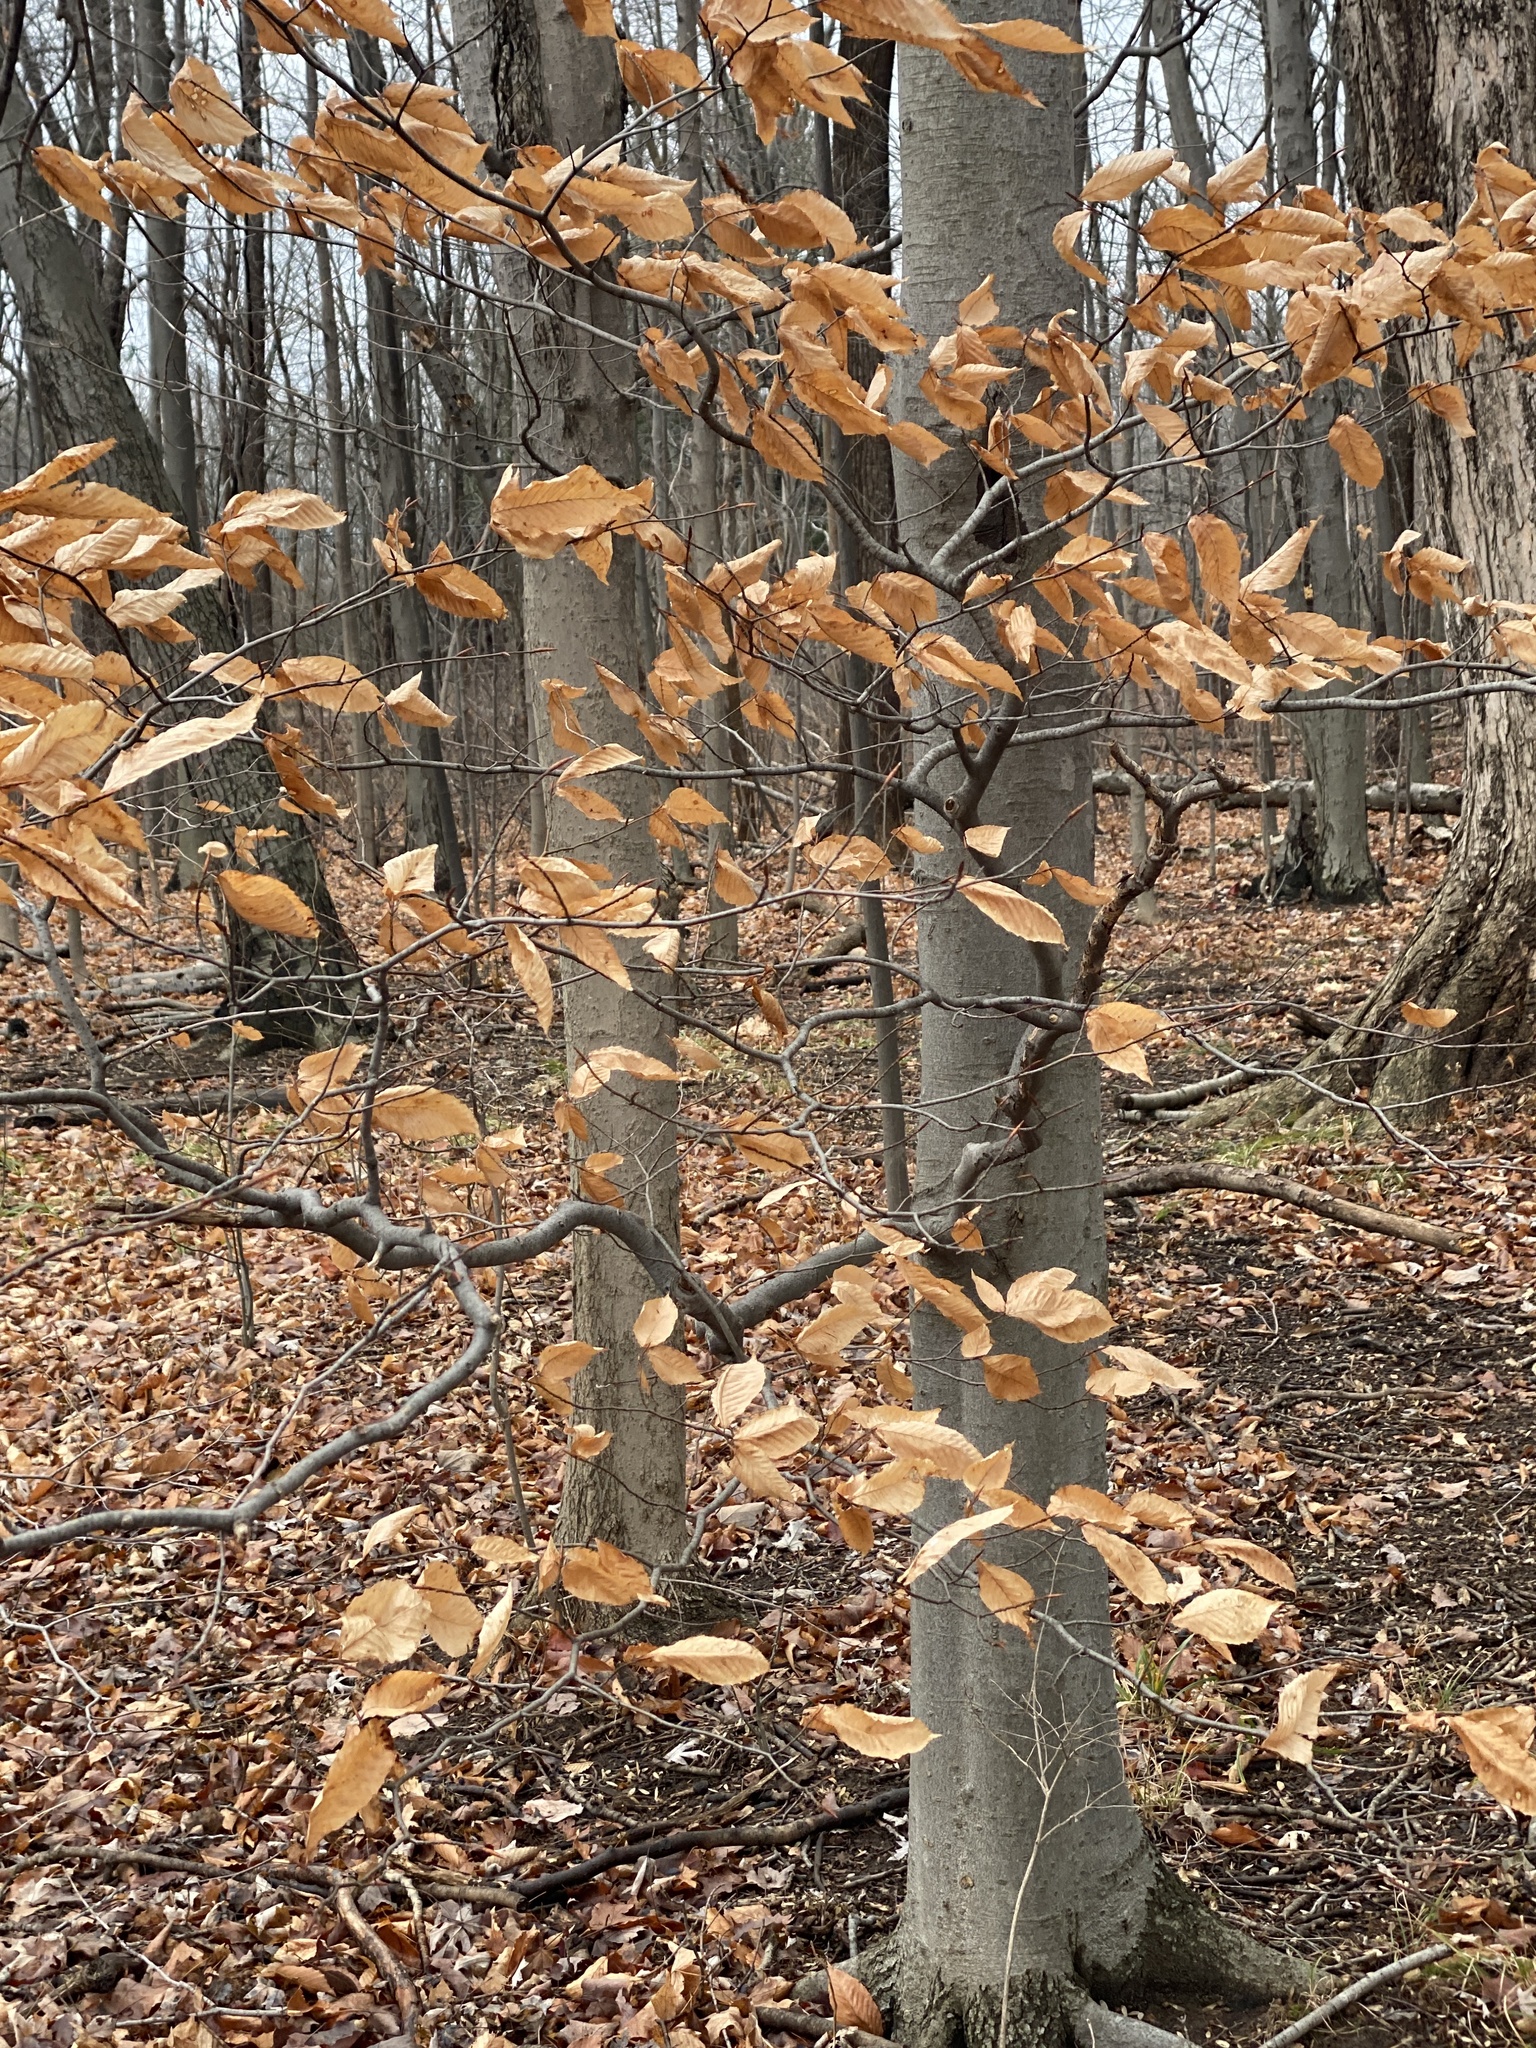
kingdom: Plantae
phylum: Tracheophyta
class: Magnoliopsida
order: Fagales
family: Fagaceae
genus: Fagus
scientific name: Fagus grandifolia
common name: American beech
